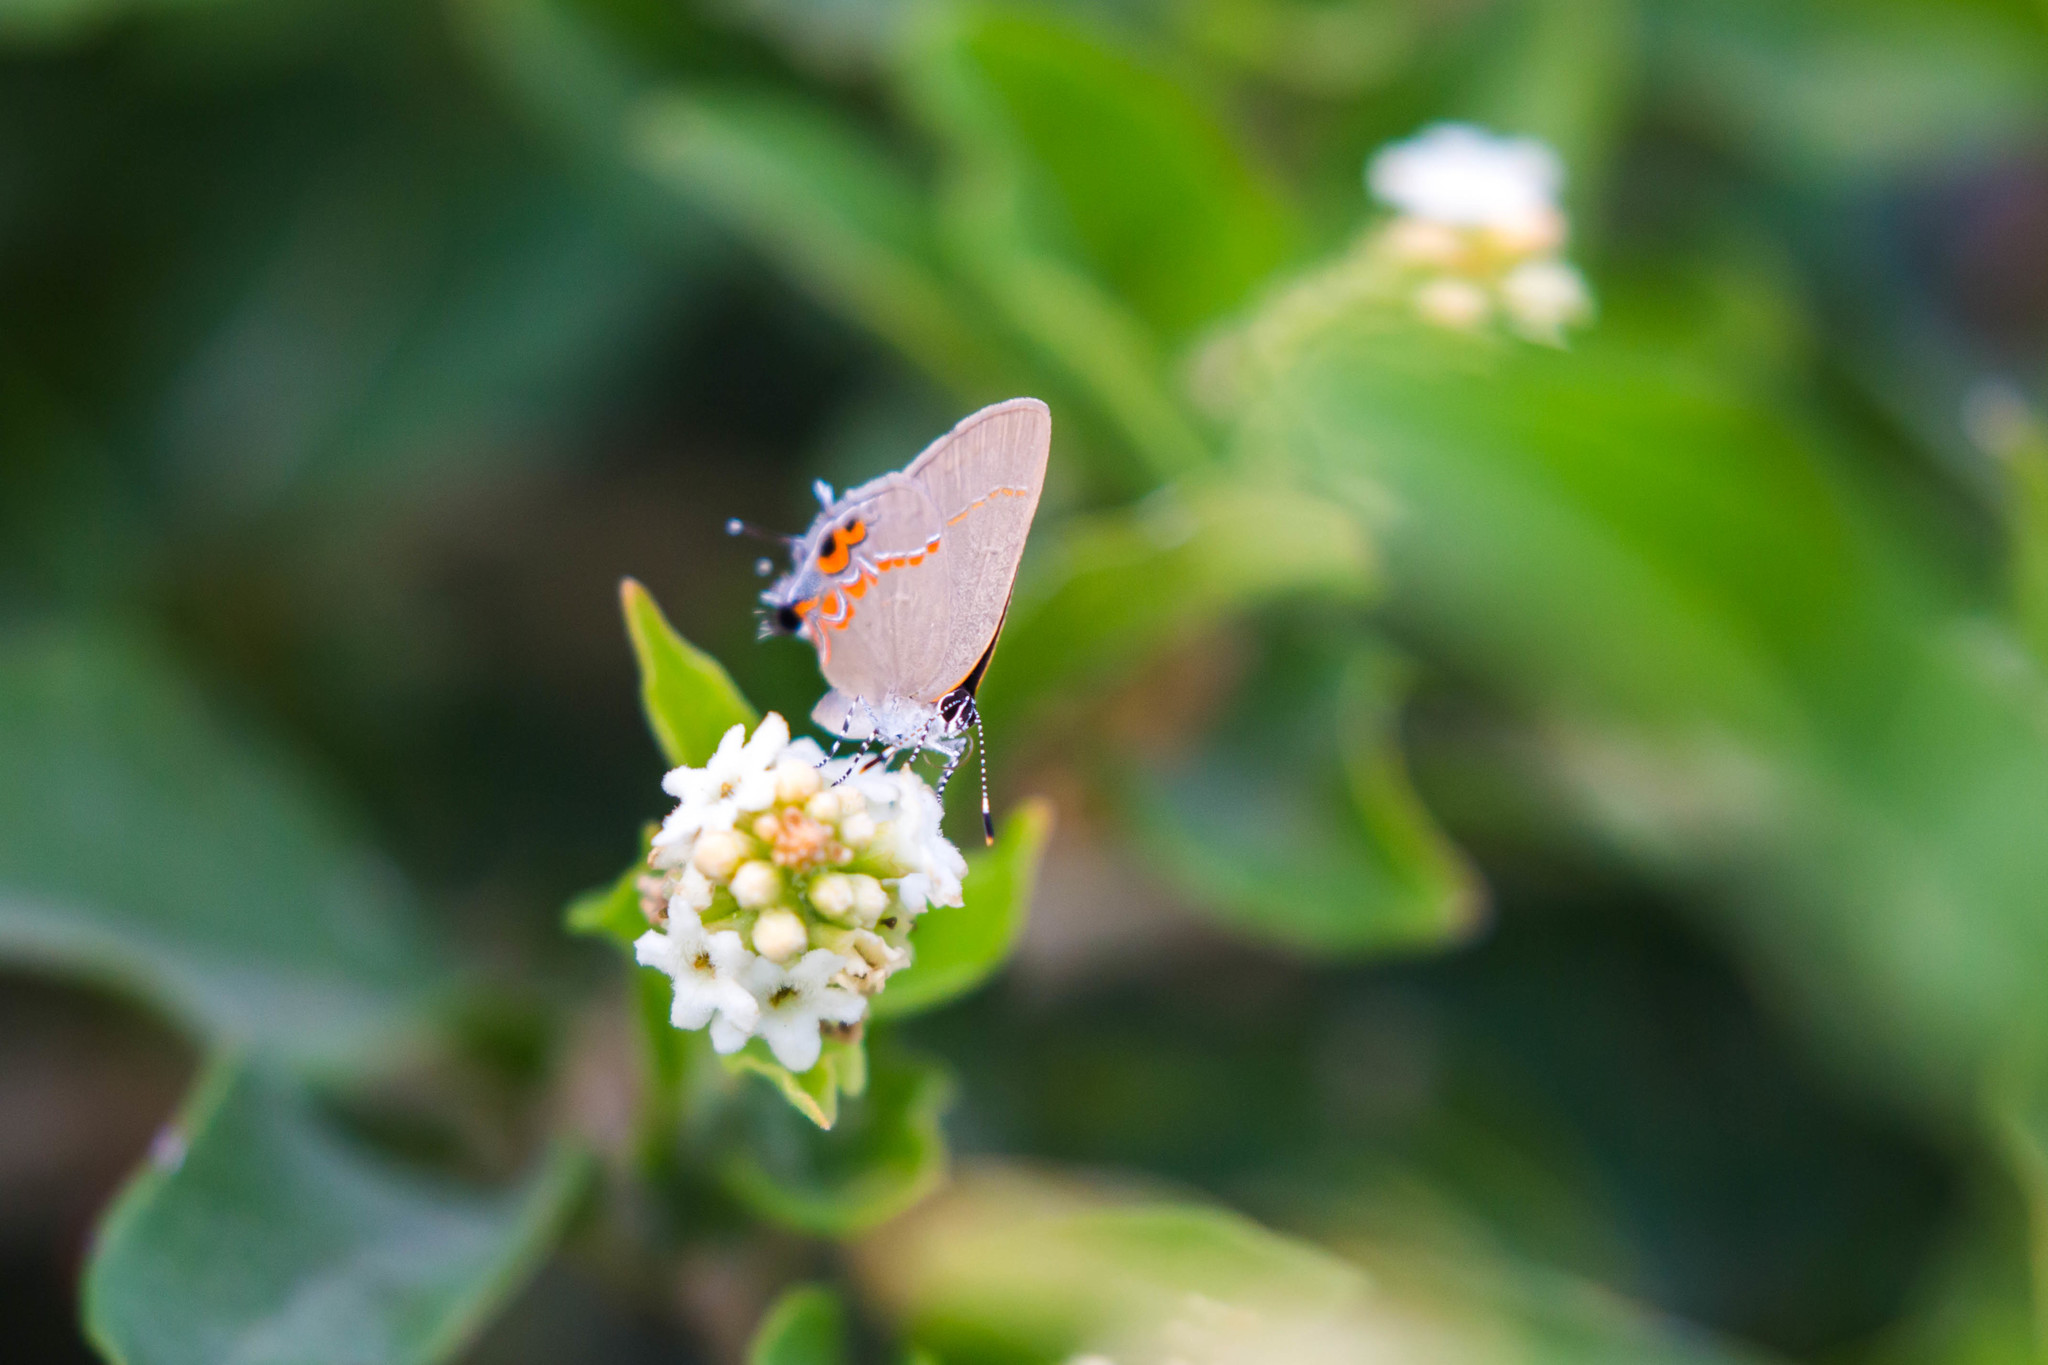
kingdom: Animalia
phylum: Arthropoda
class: Insecta
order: Lepidoptera
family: Lycaenidae
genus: Calycopis
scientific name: Calycopis isobeon
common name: Dusky-blue groundstreak
